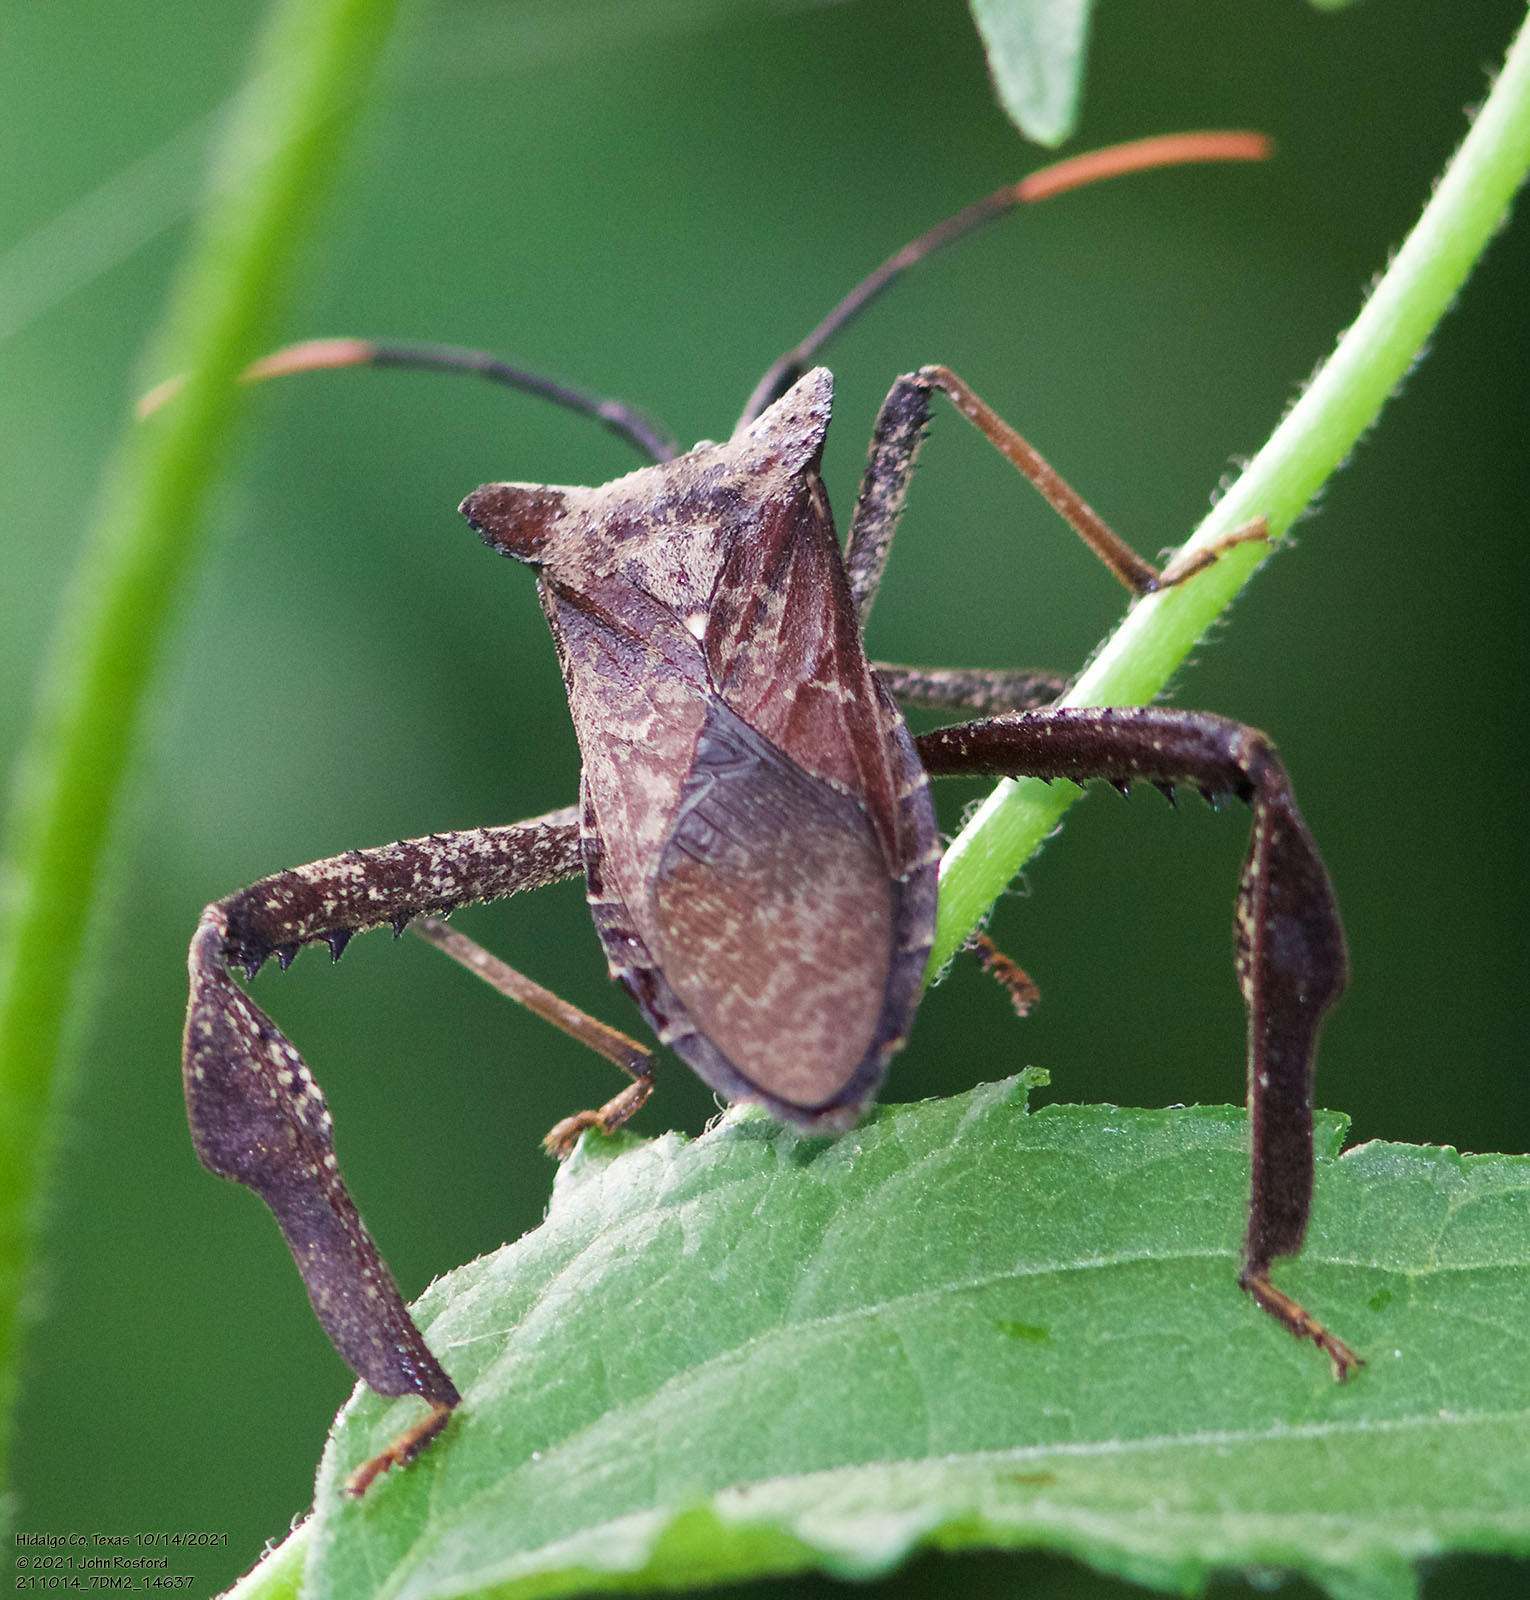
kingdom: Animalia
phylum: Arthropoda
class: Insecta
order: Hemiptera
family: Coreidae
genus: Acanthocephala
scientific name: Acanthocephala alata
